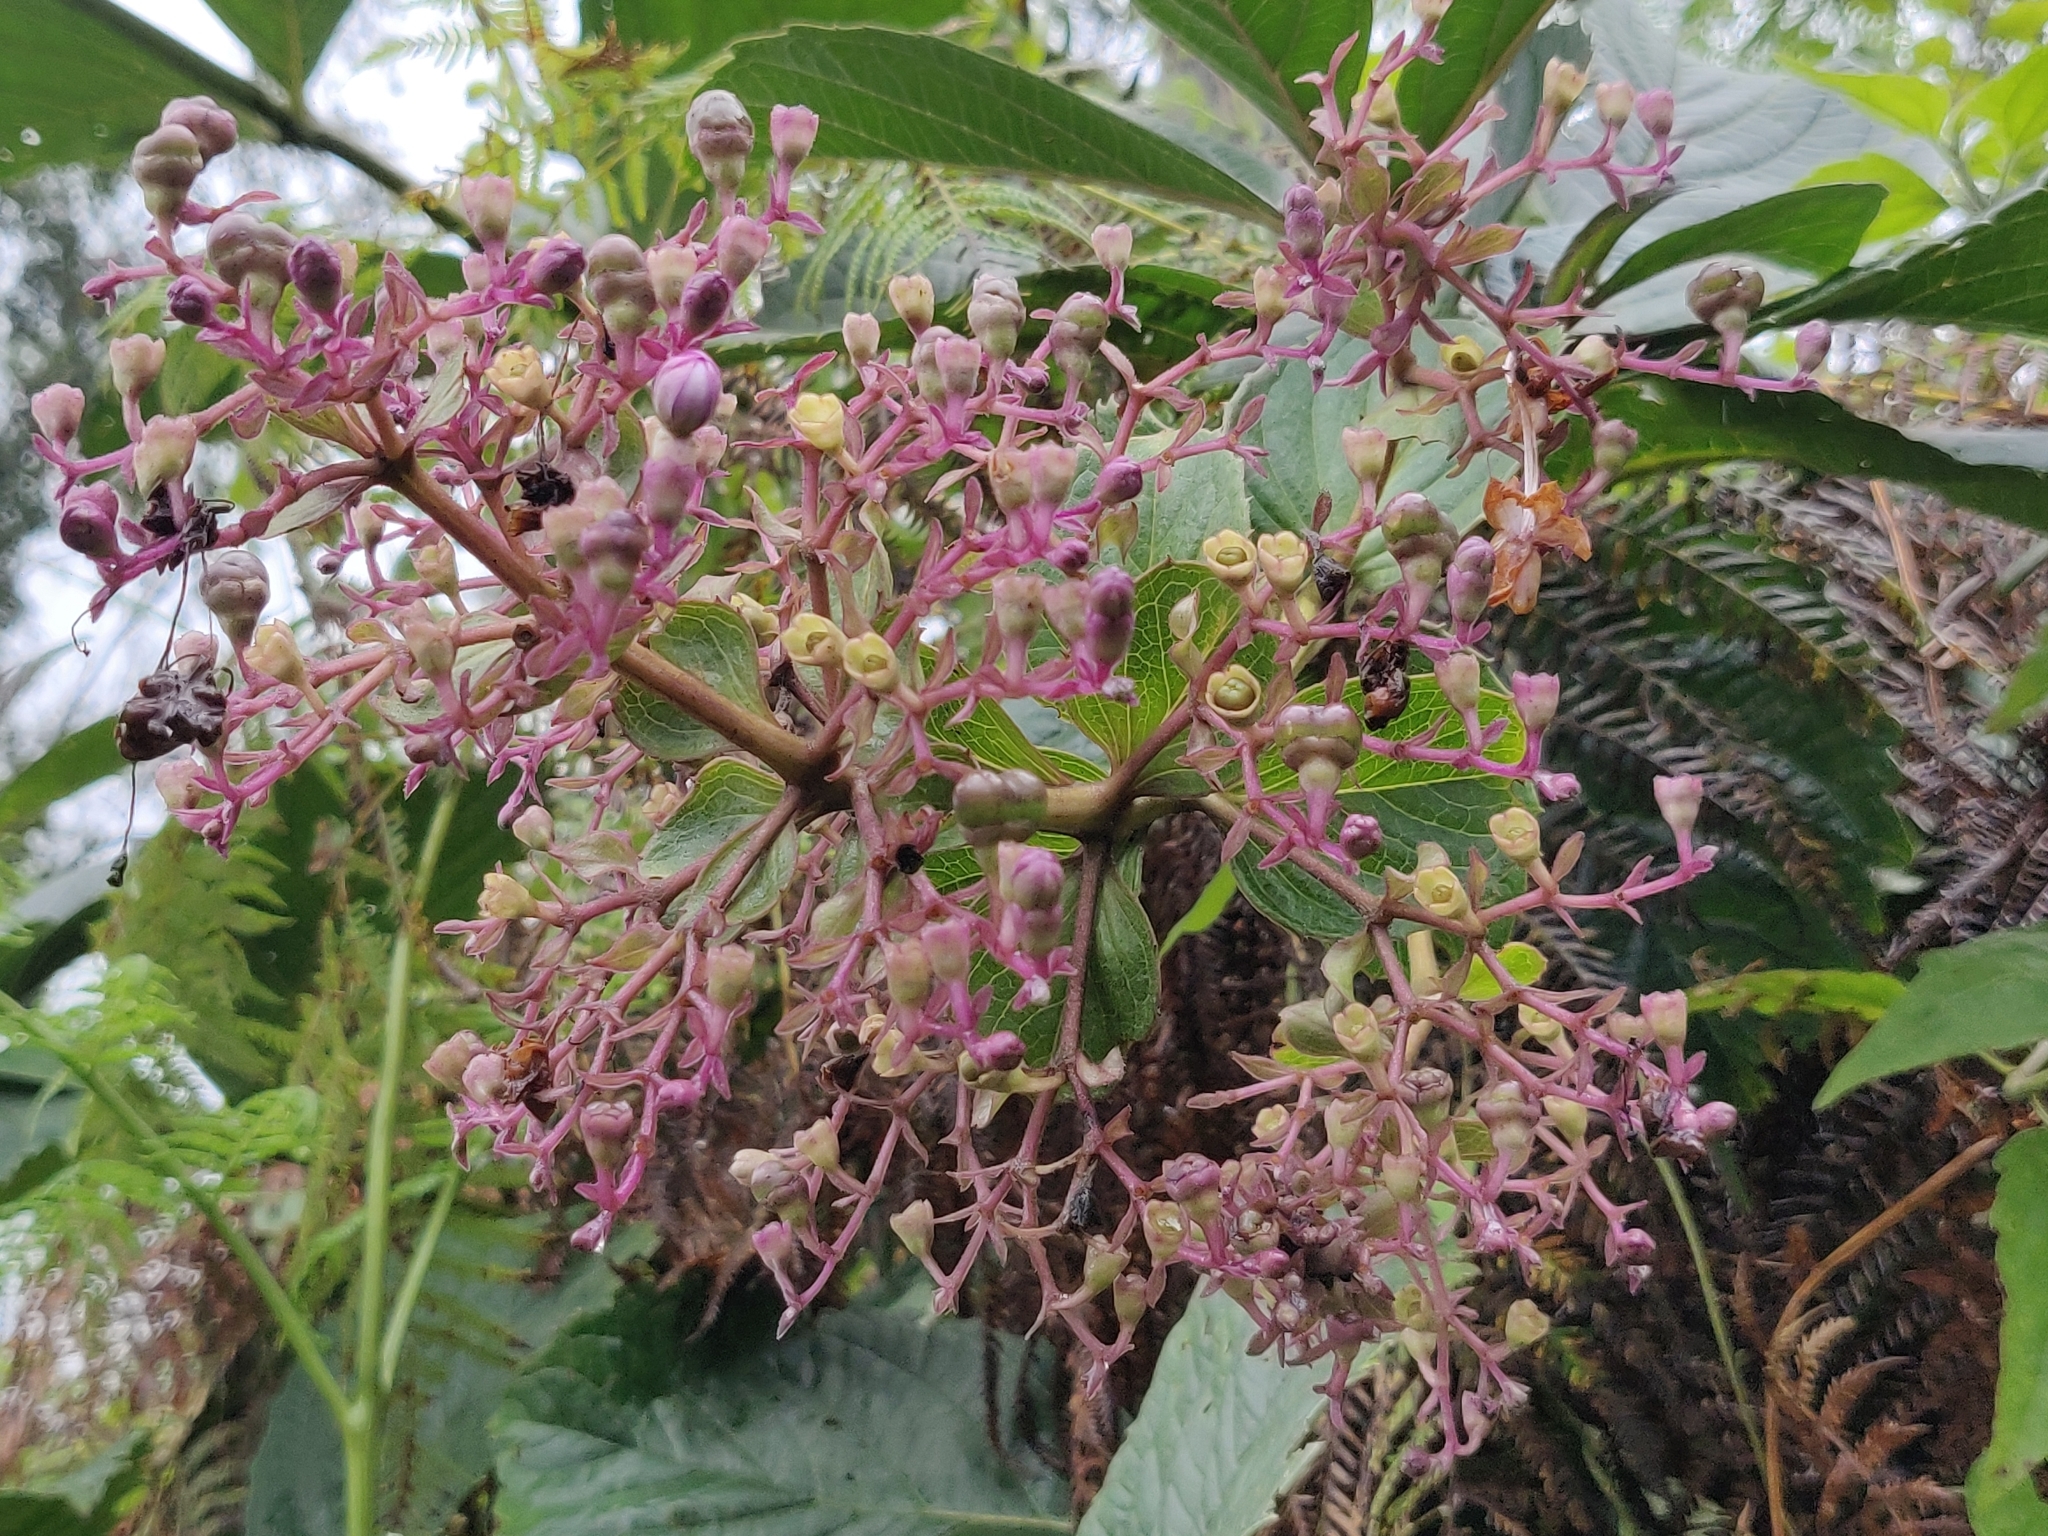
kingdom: Plantae
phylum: Tracheophyta
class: Magnoliopsida
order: Lamiales
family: Lamiaceae
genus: Rotheca
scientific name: Rotheca serrata
